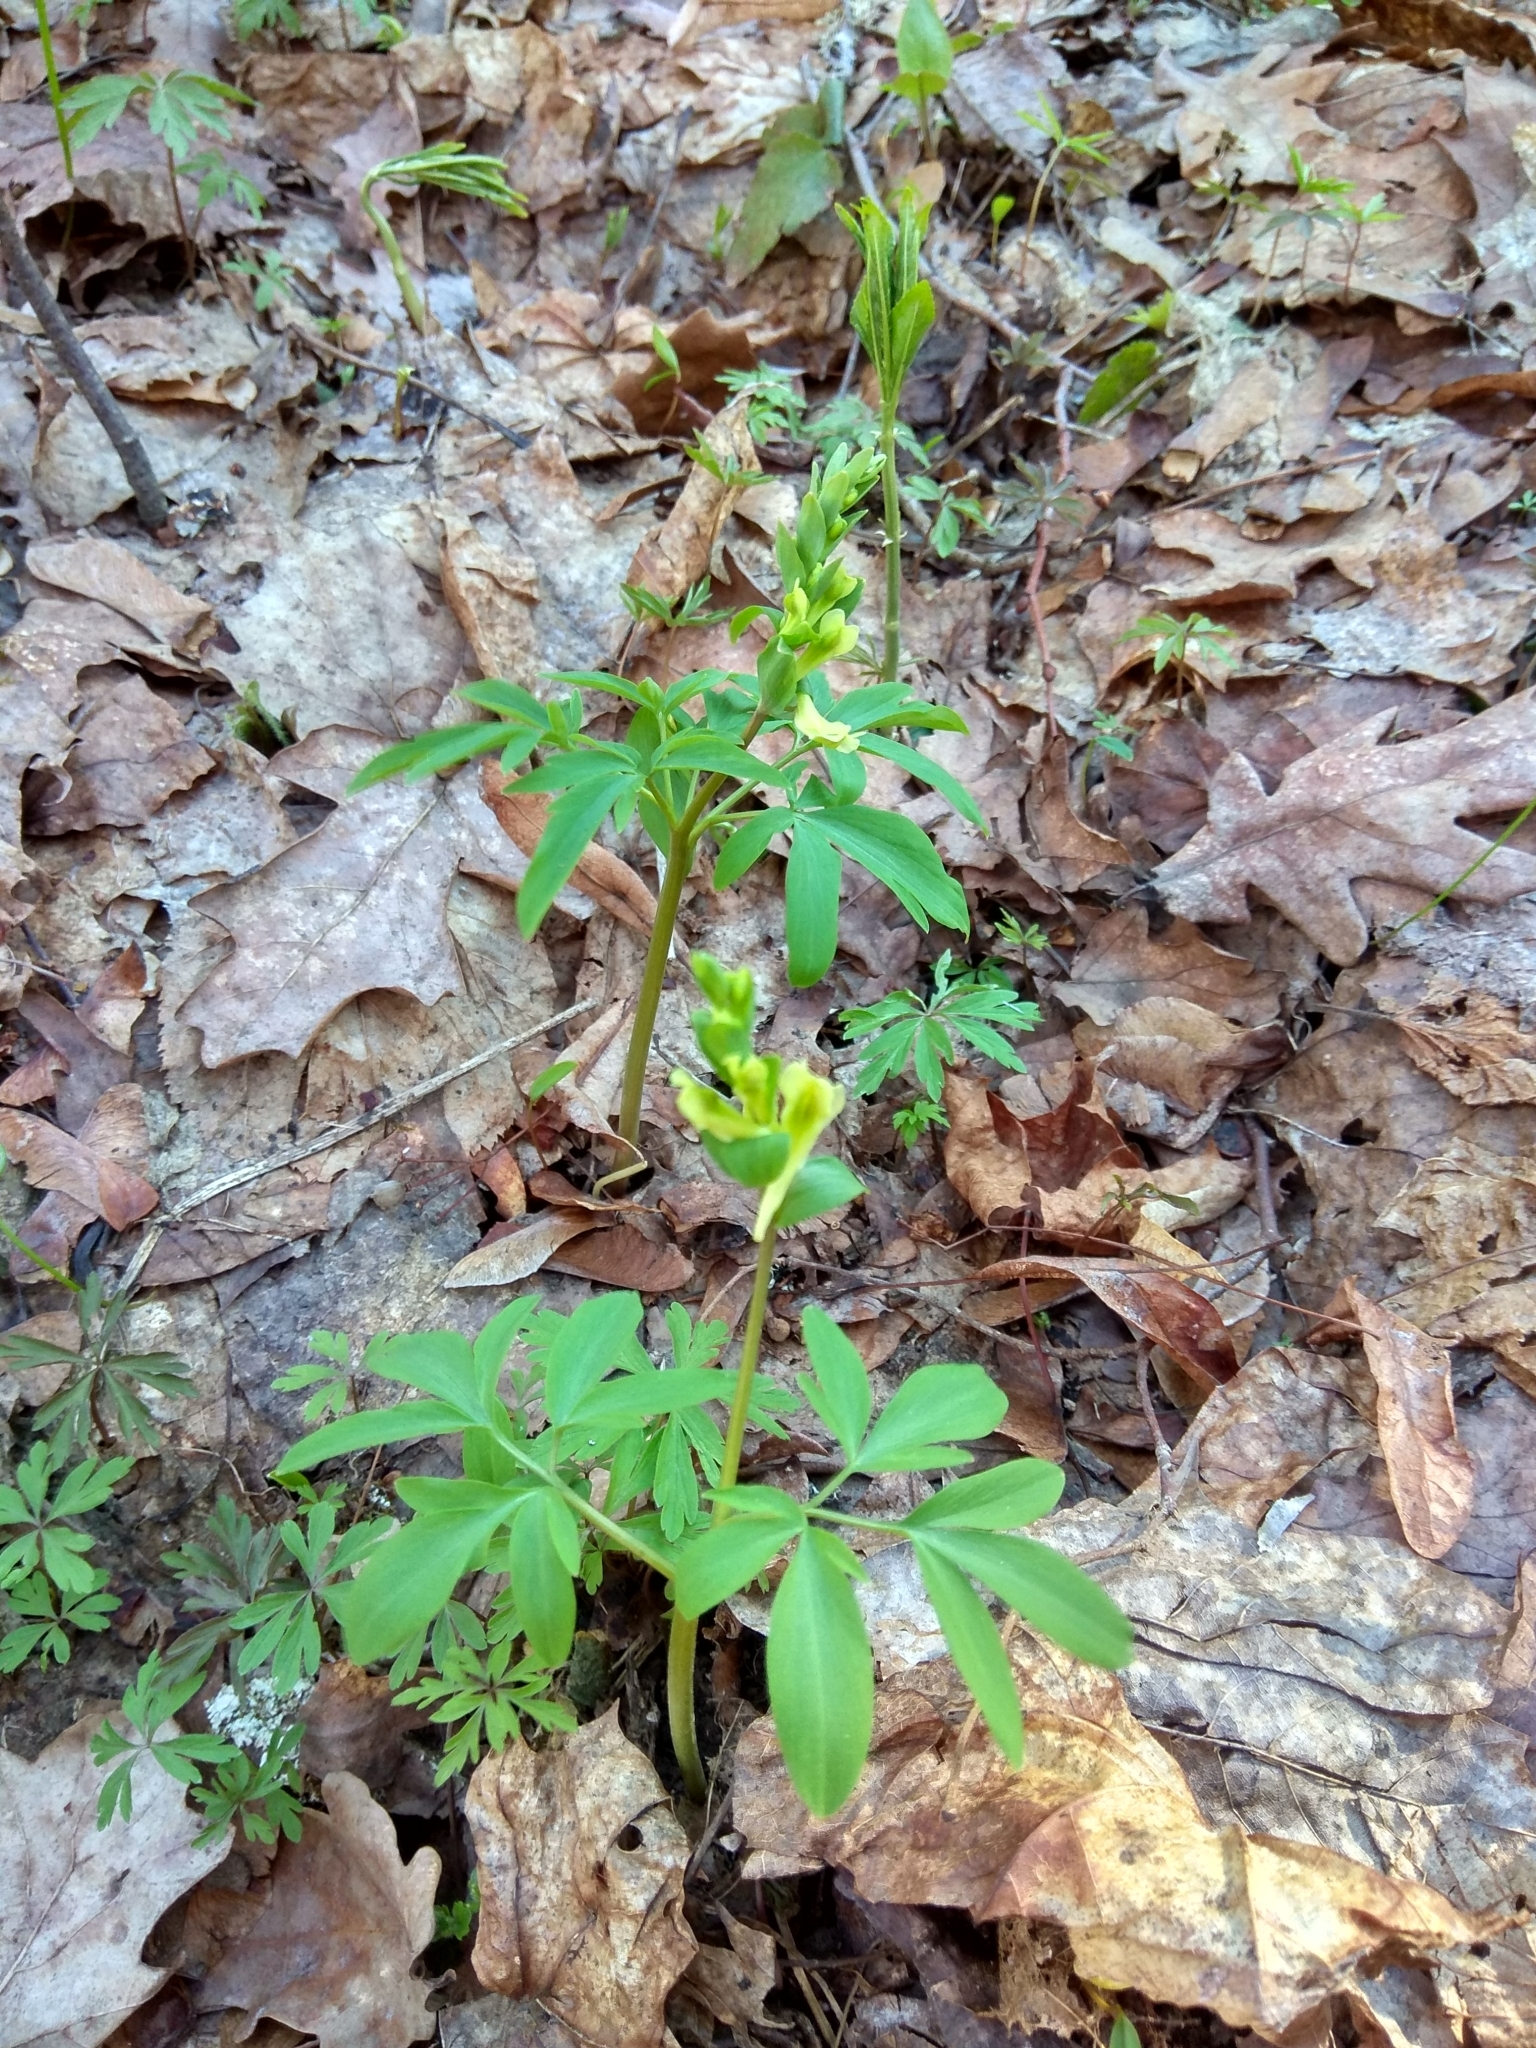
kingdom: Plantae
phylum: Tracheophyta
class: Magnoliopsida
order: Ranunculales
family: Papaveraceae
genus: Corydalis
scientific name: Corydalis cava
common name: Hollowroot
